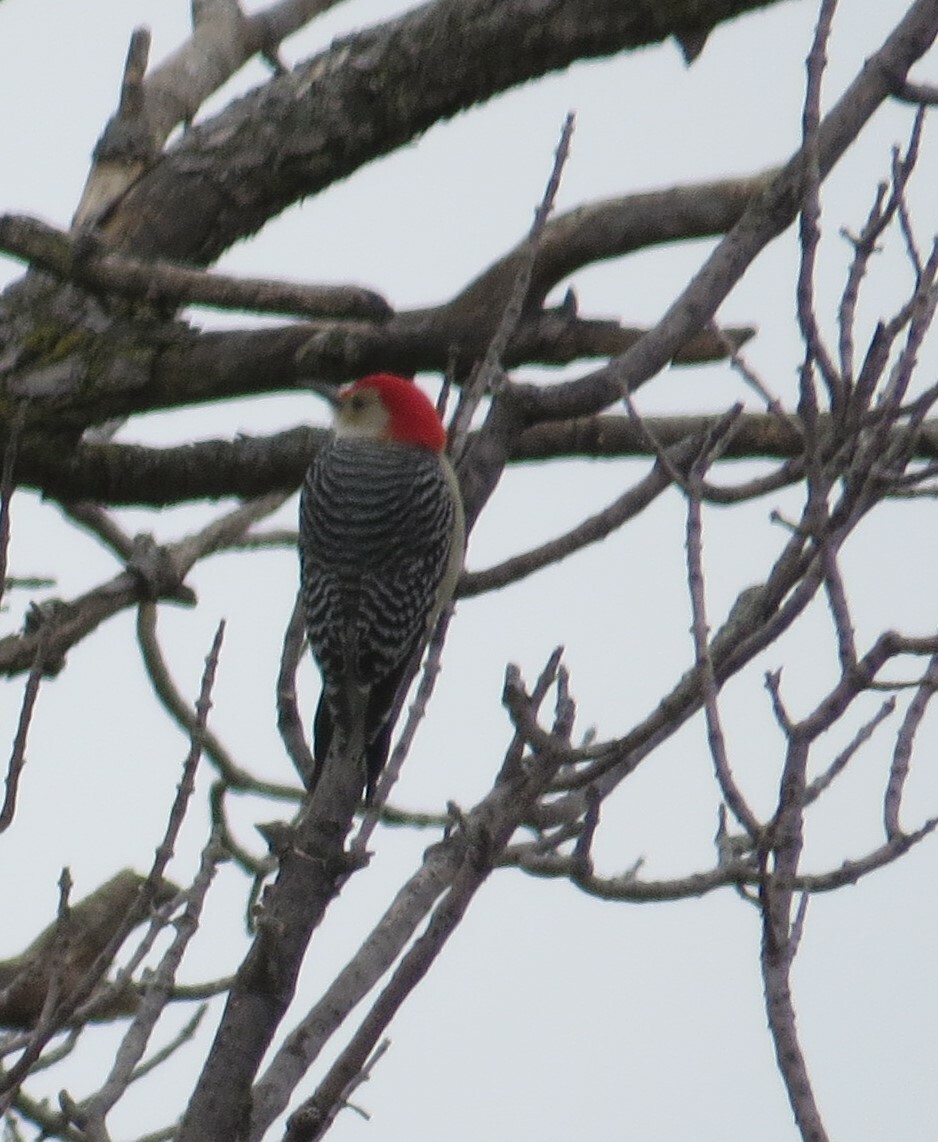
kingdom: Animalia
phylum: Chordata
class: Aves
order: Piciformes
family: Picidae
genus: Melanerpes
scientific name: Melanerpes carolinus
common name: Red-bellied woodpecker
